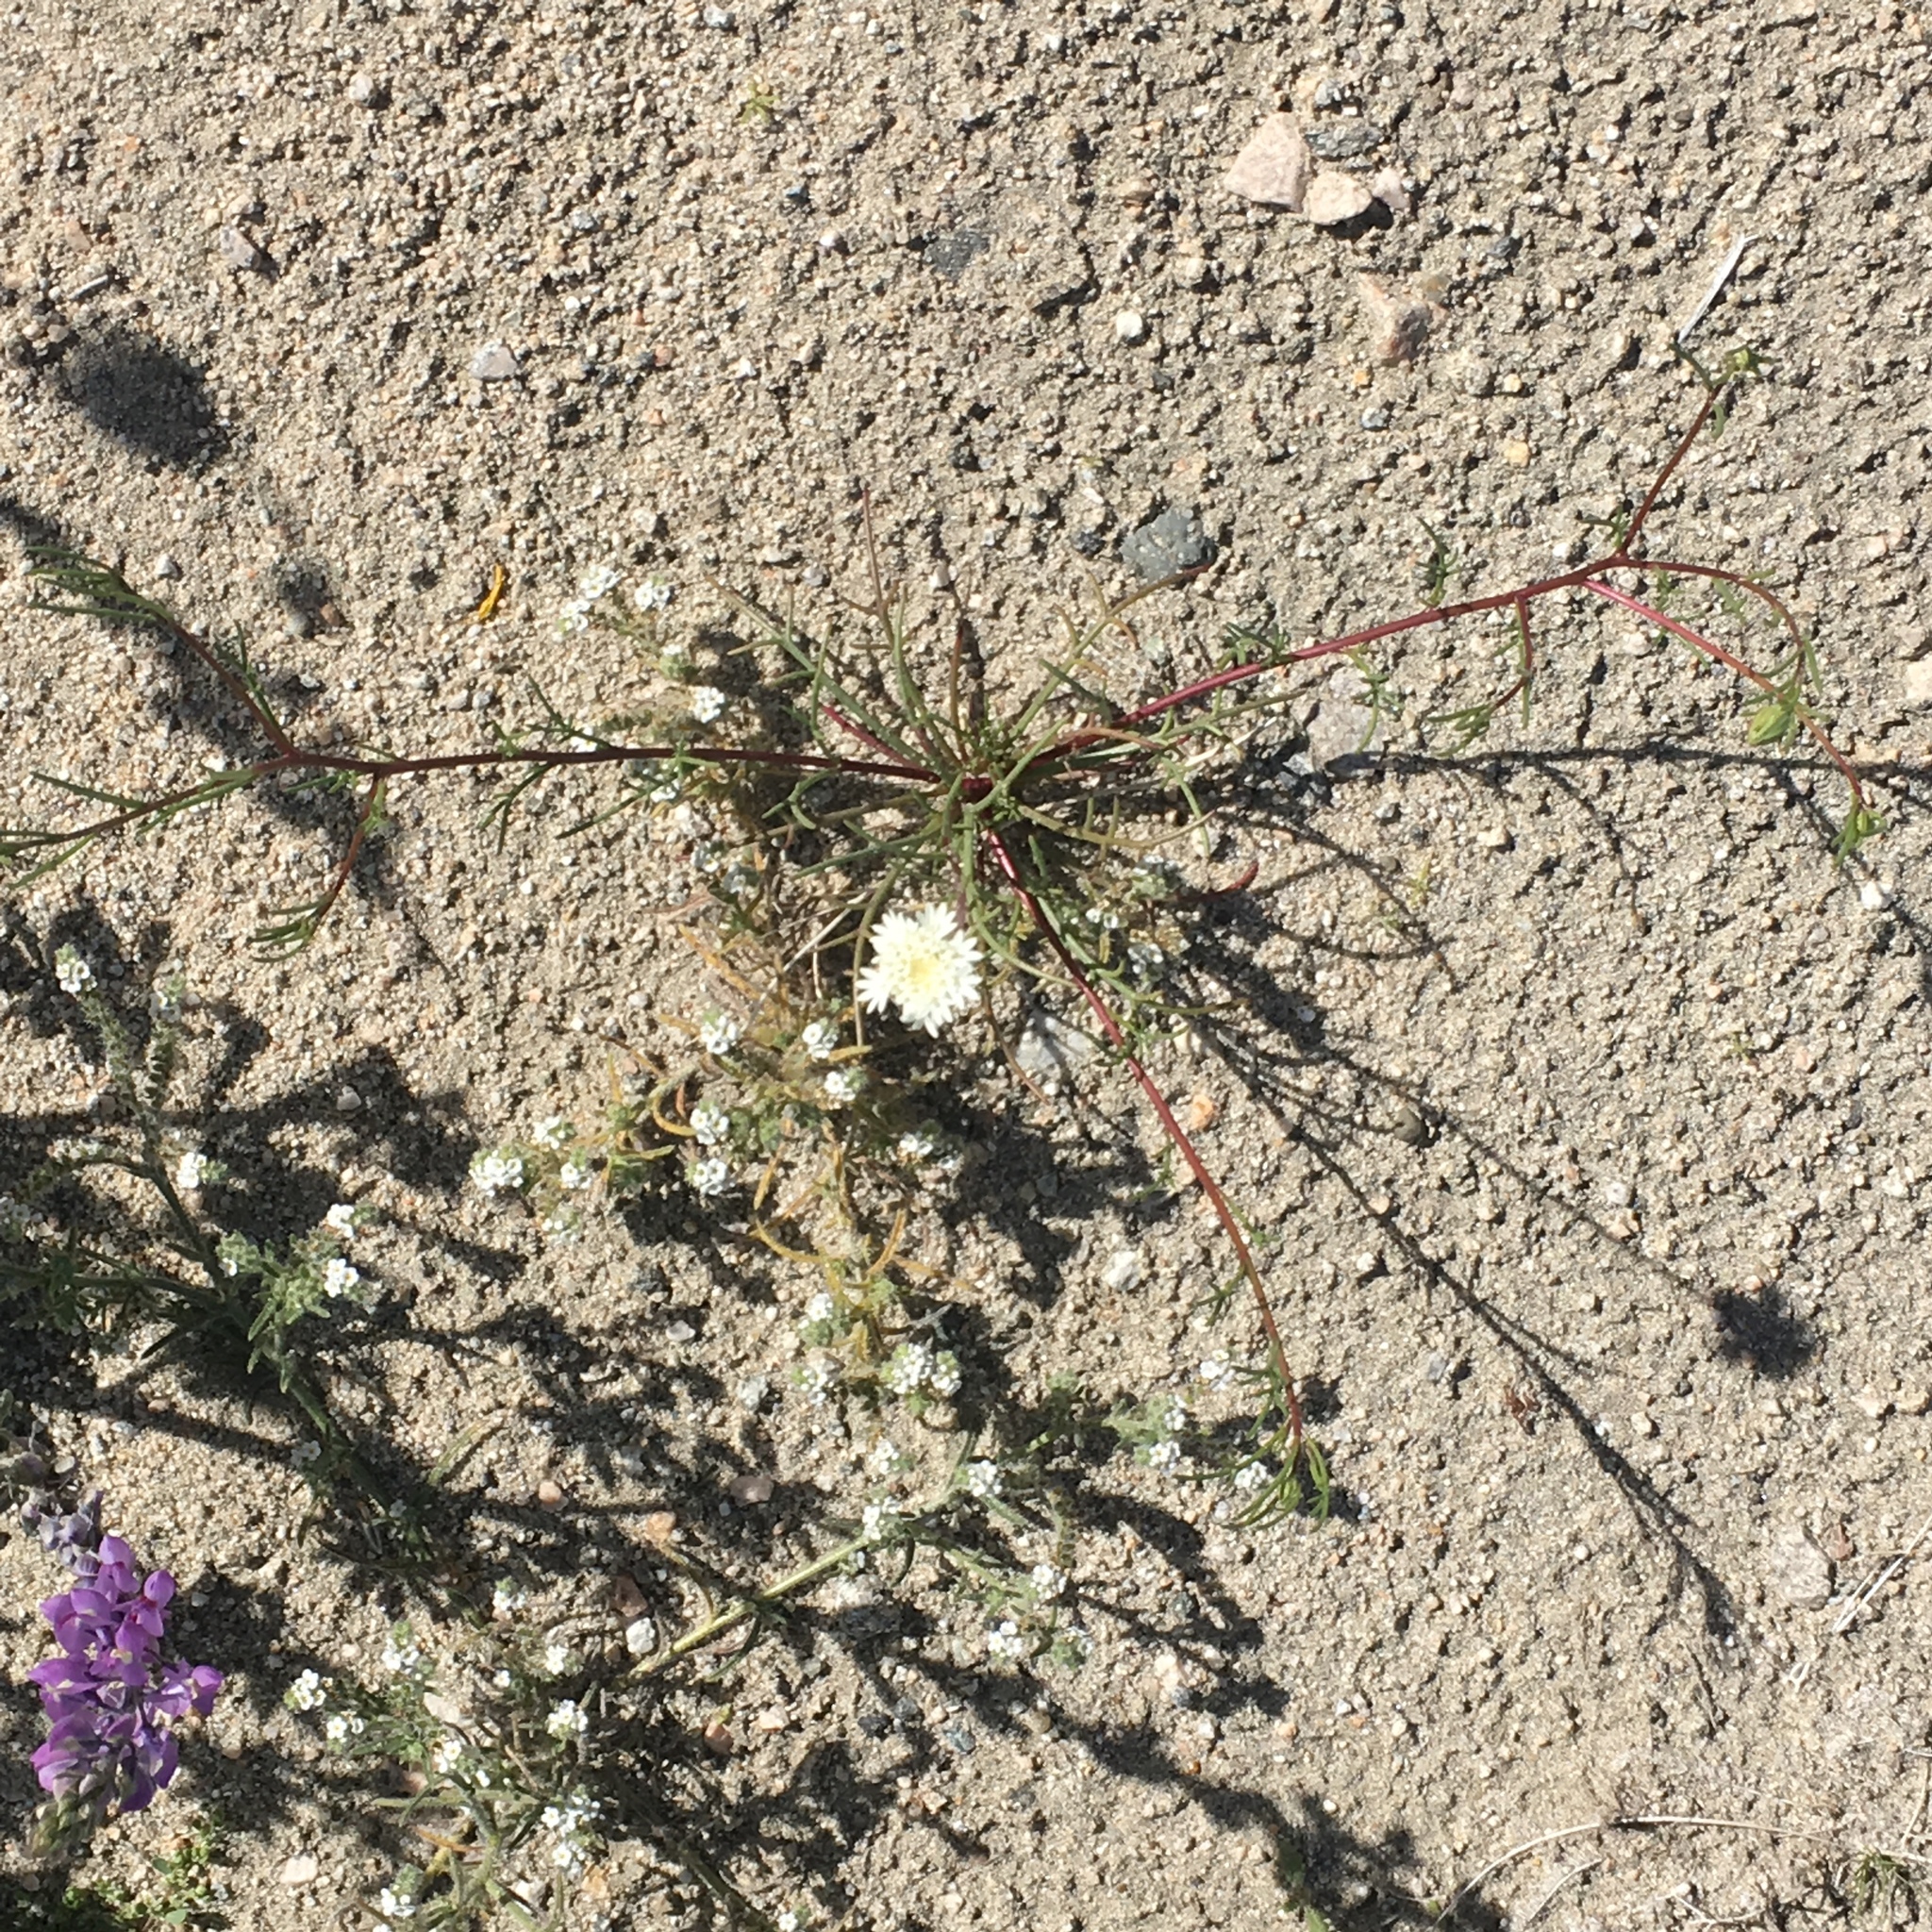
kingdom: Plantae
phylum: Tracheophyta
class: Magnoliopsida
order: Asterales
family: Asteraceae
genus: Chaenactis
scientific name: Chaenactis fremontii
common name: Fremont pincushion
